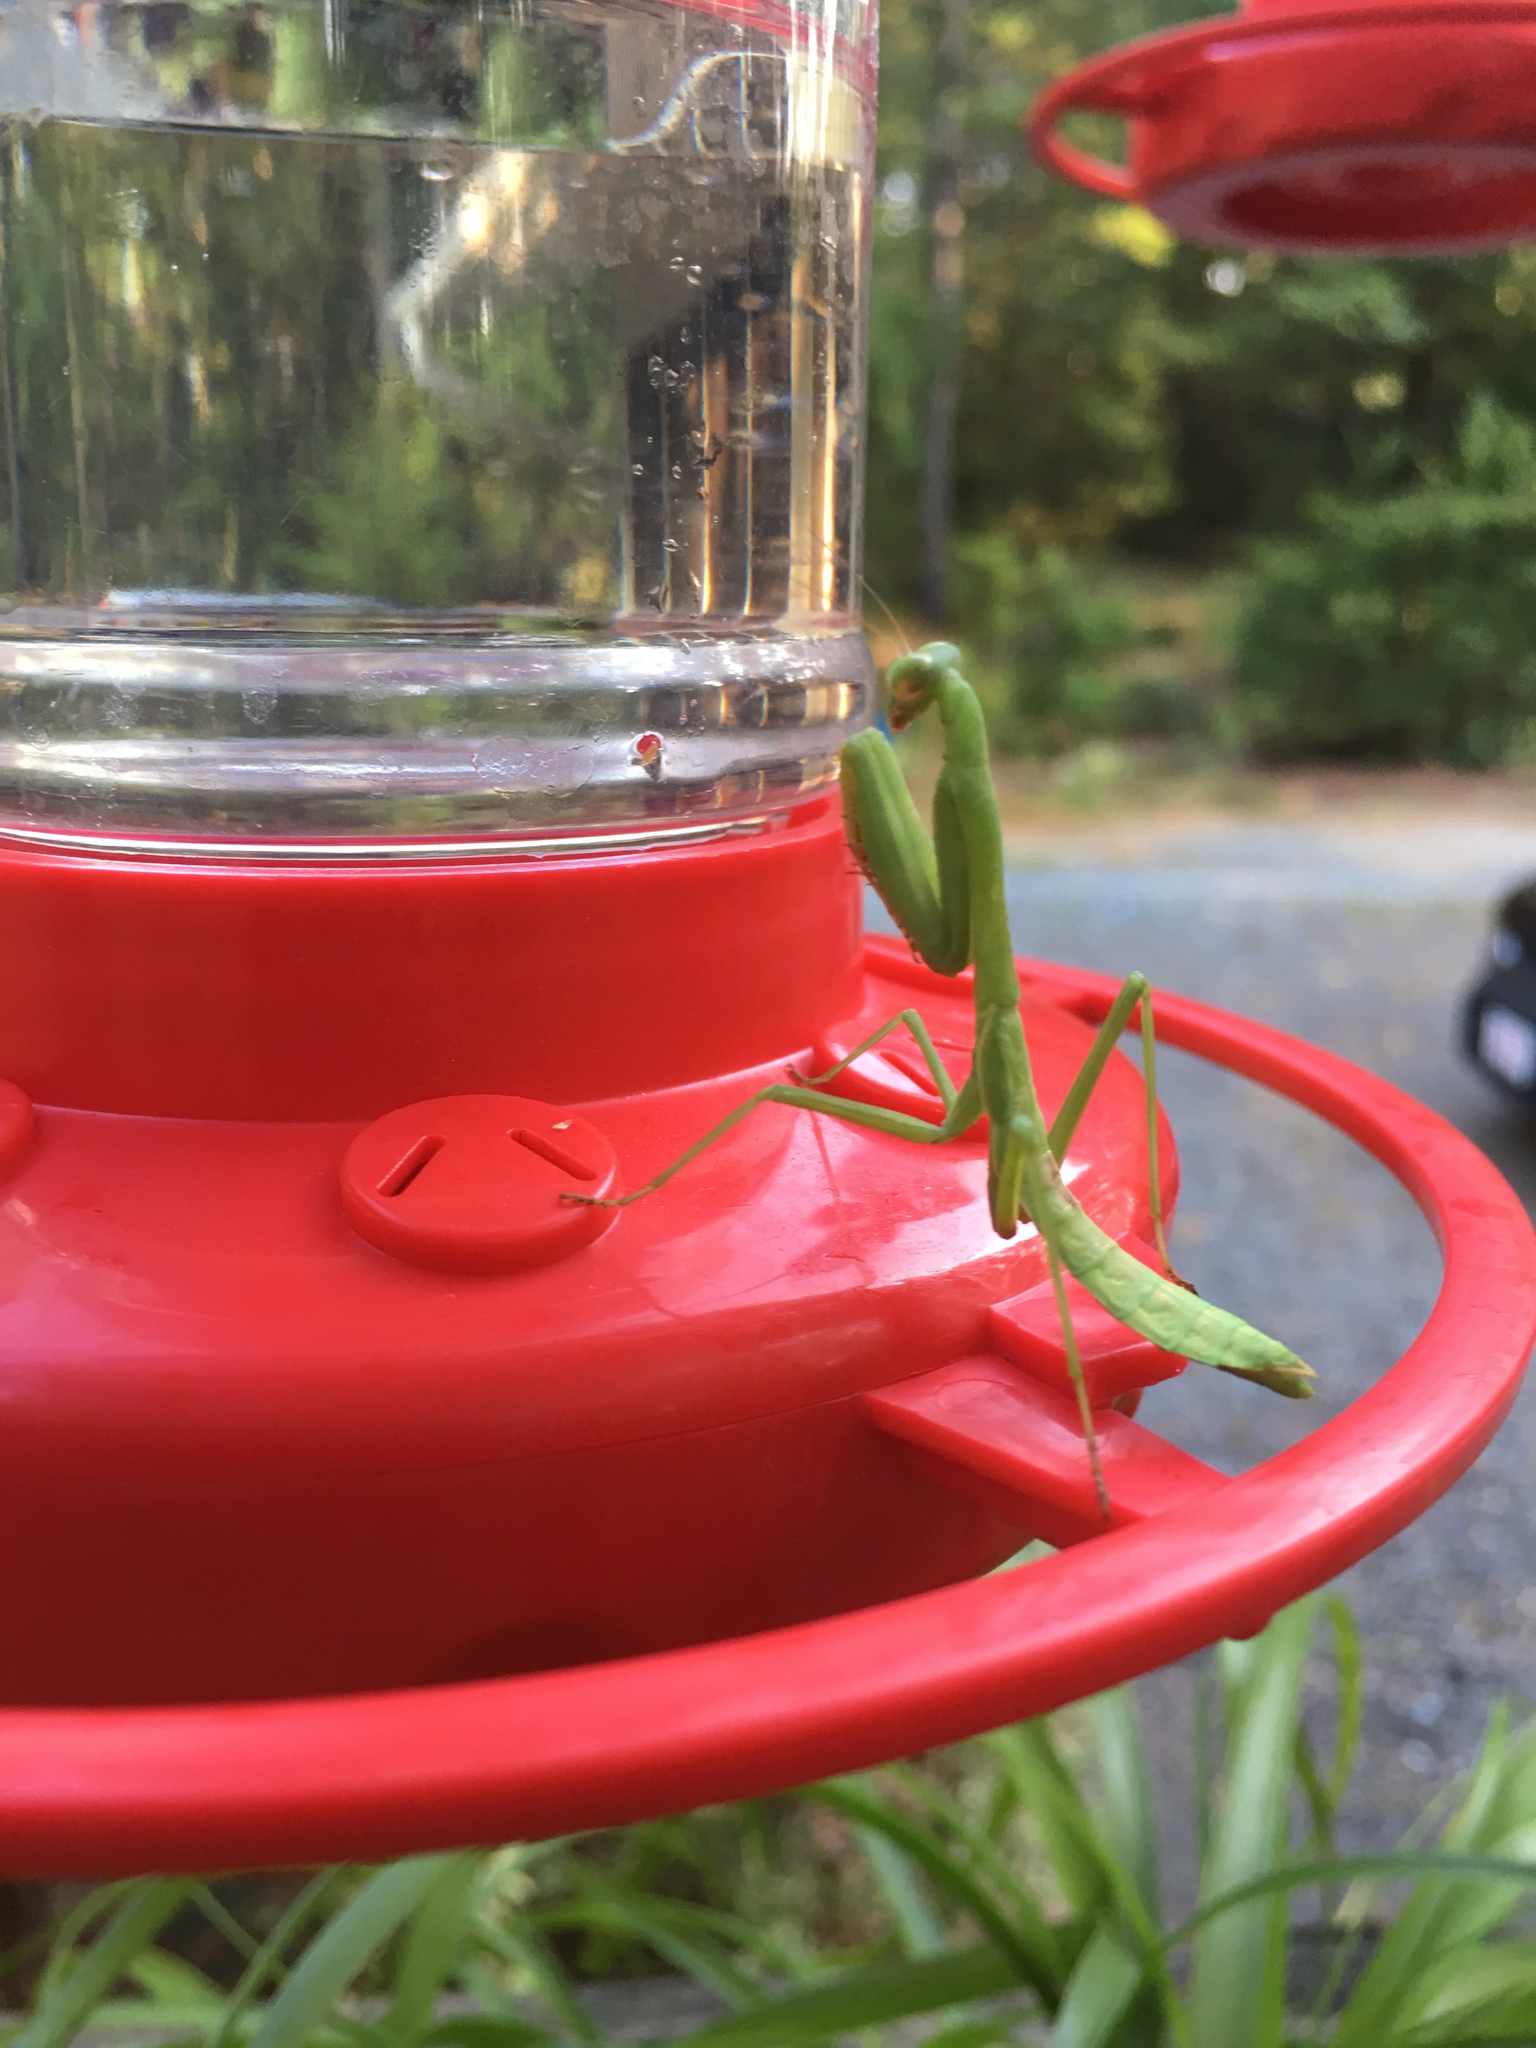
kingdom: Animalia
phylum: Arthropoda
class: Insecta
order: Mantodea
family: Mantidae
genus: Stagmomantis
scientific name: Stagmomantis carolina
